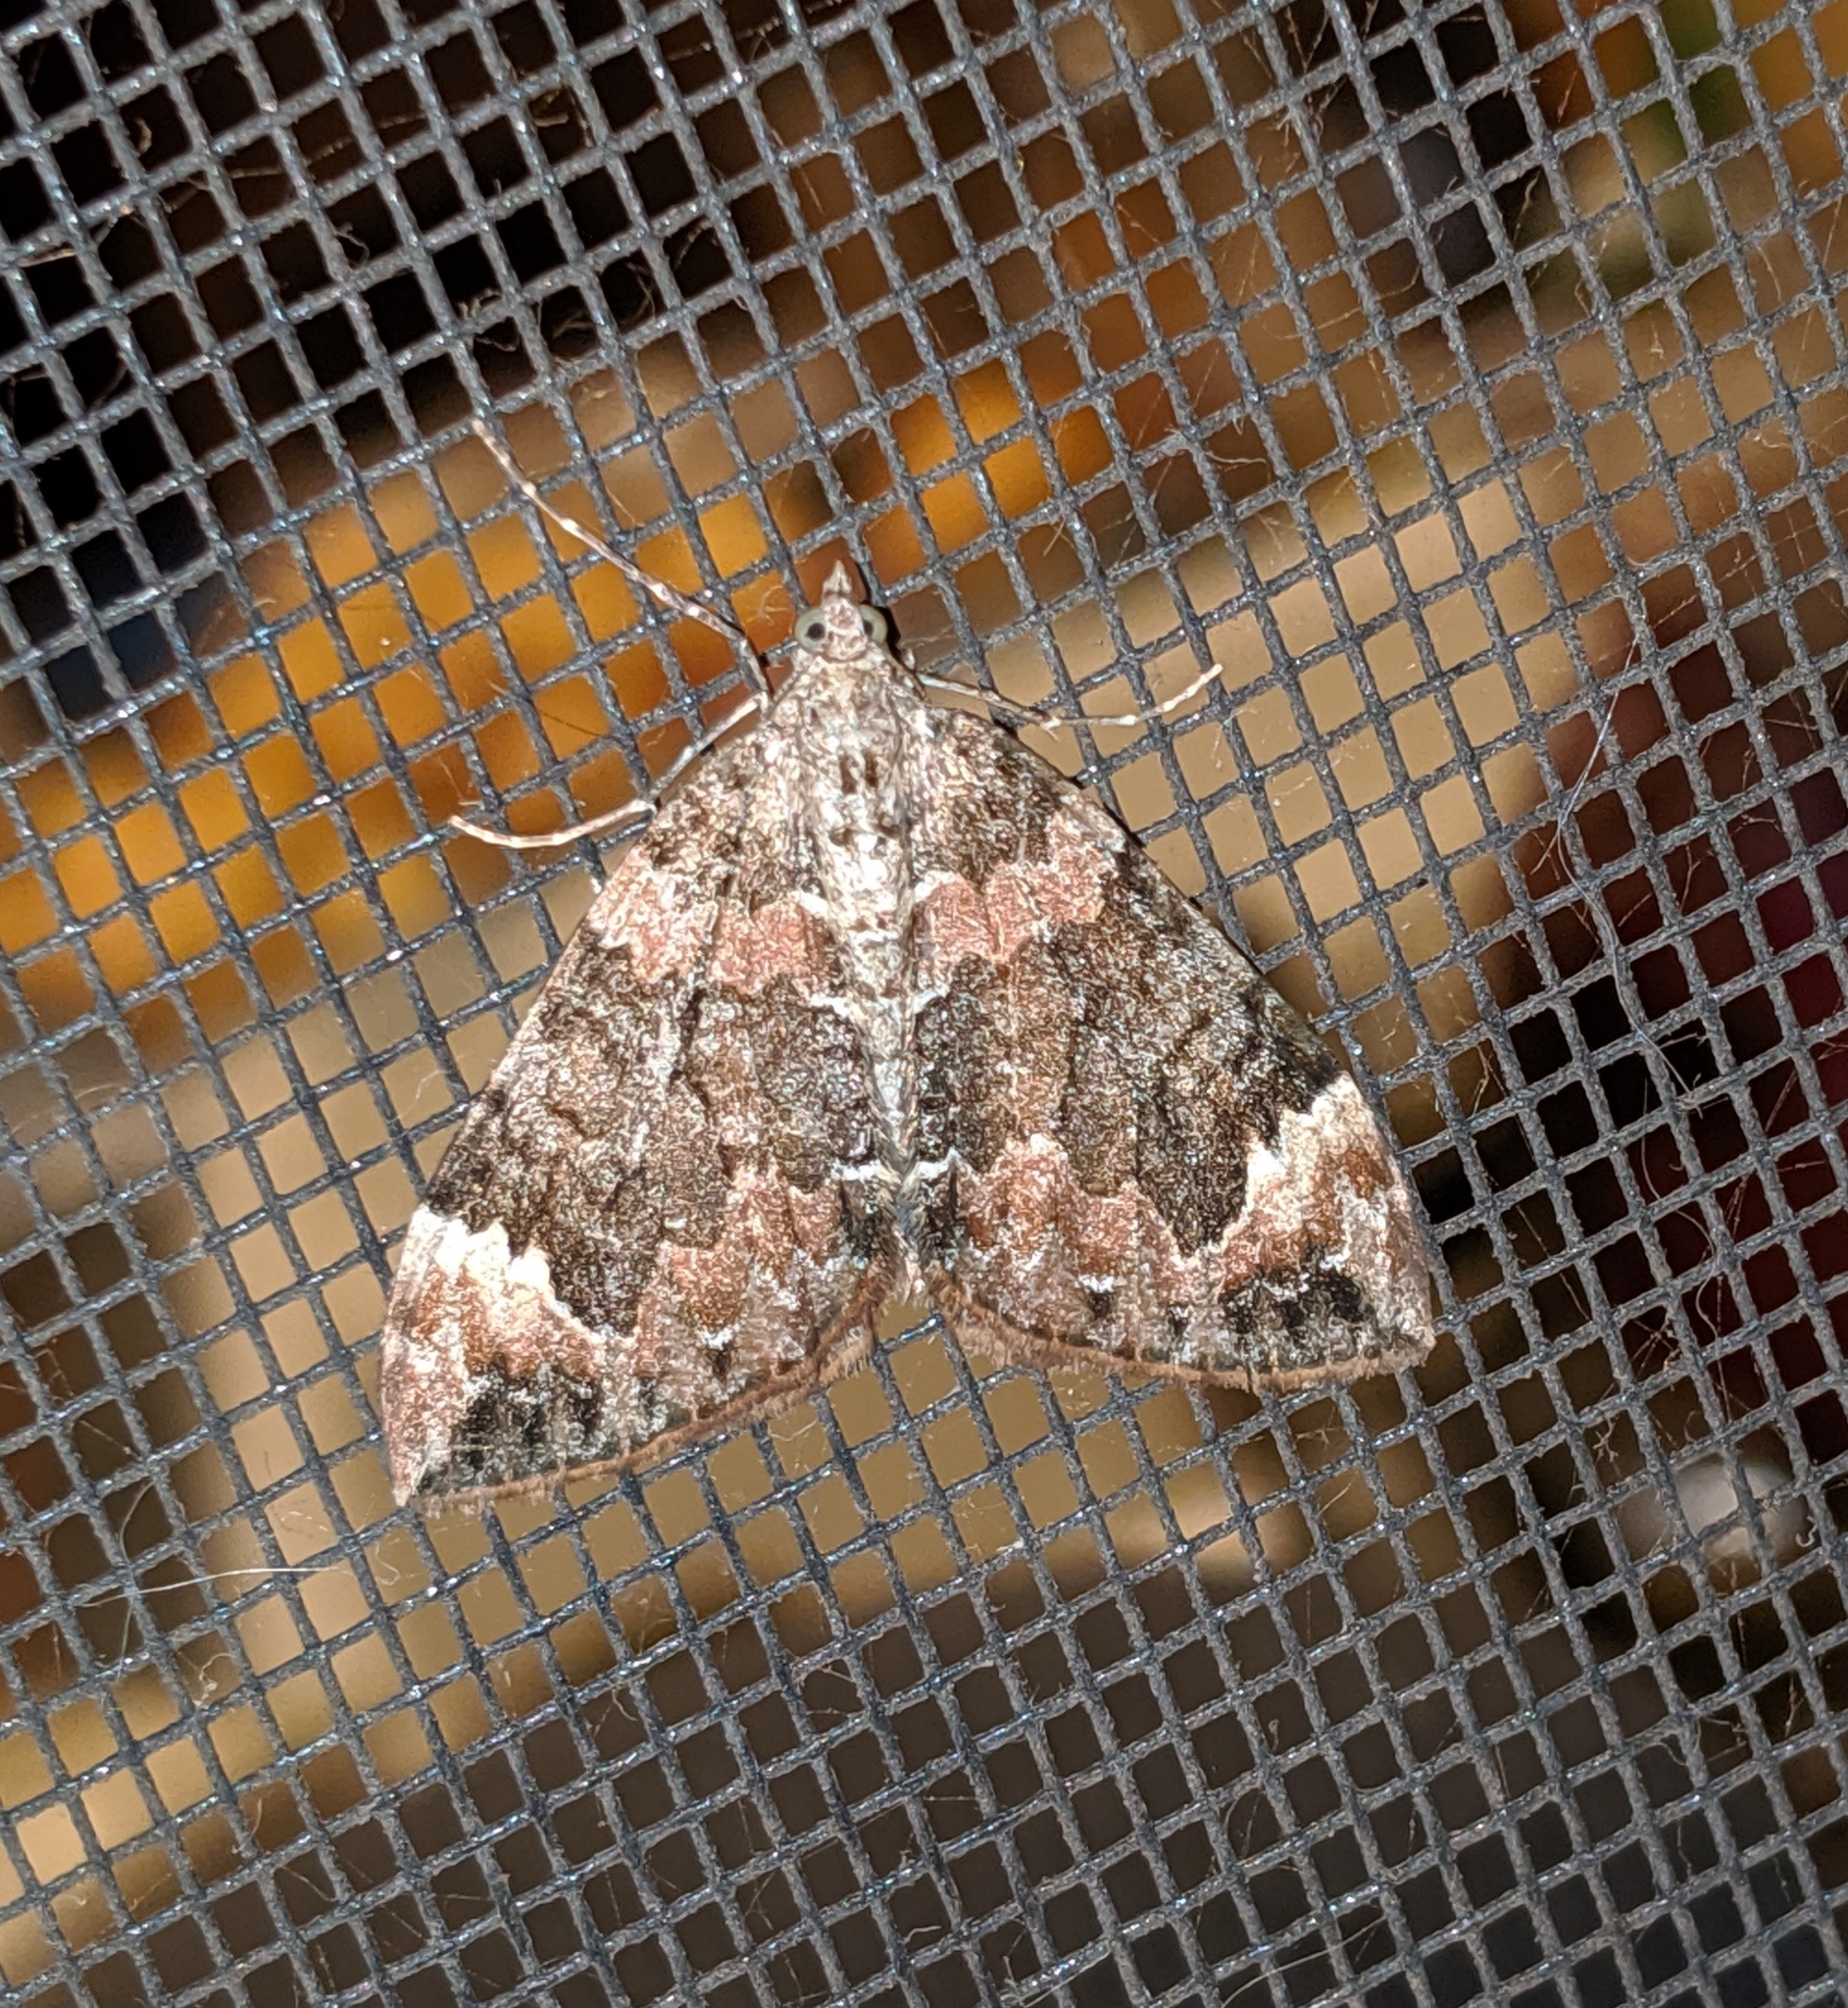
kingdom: Animalia
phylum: Arthropoda
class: Insecta
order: Lepidoptera
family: Geometridae
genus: Dysstroma
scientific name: Dysstroma citrata
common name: Dark marbled carpet
